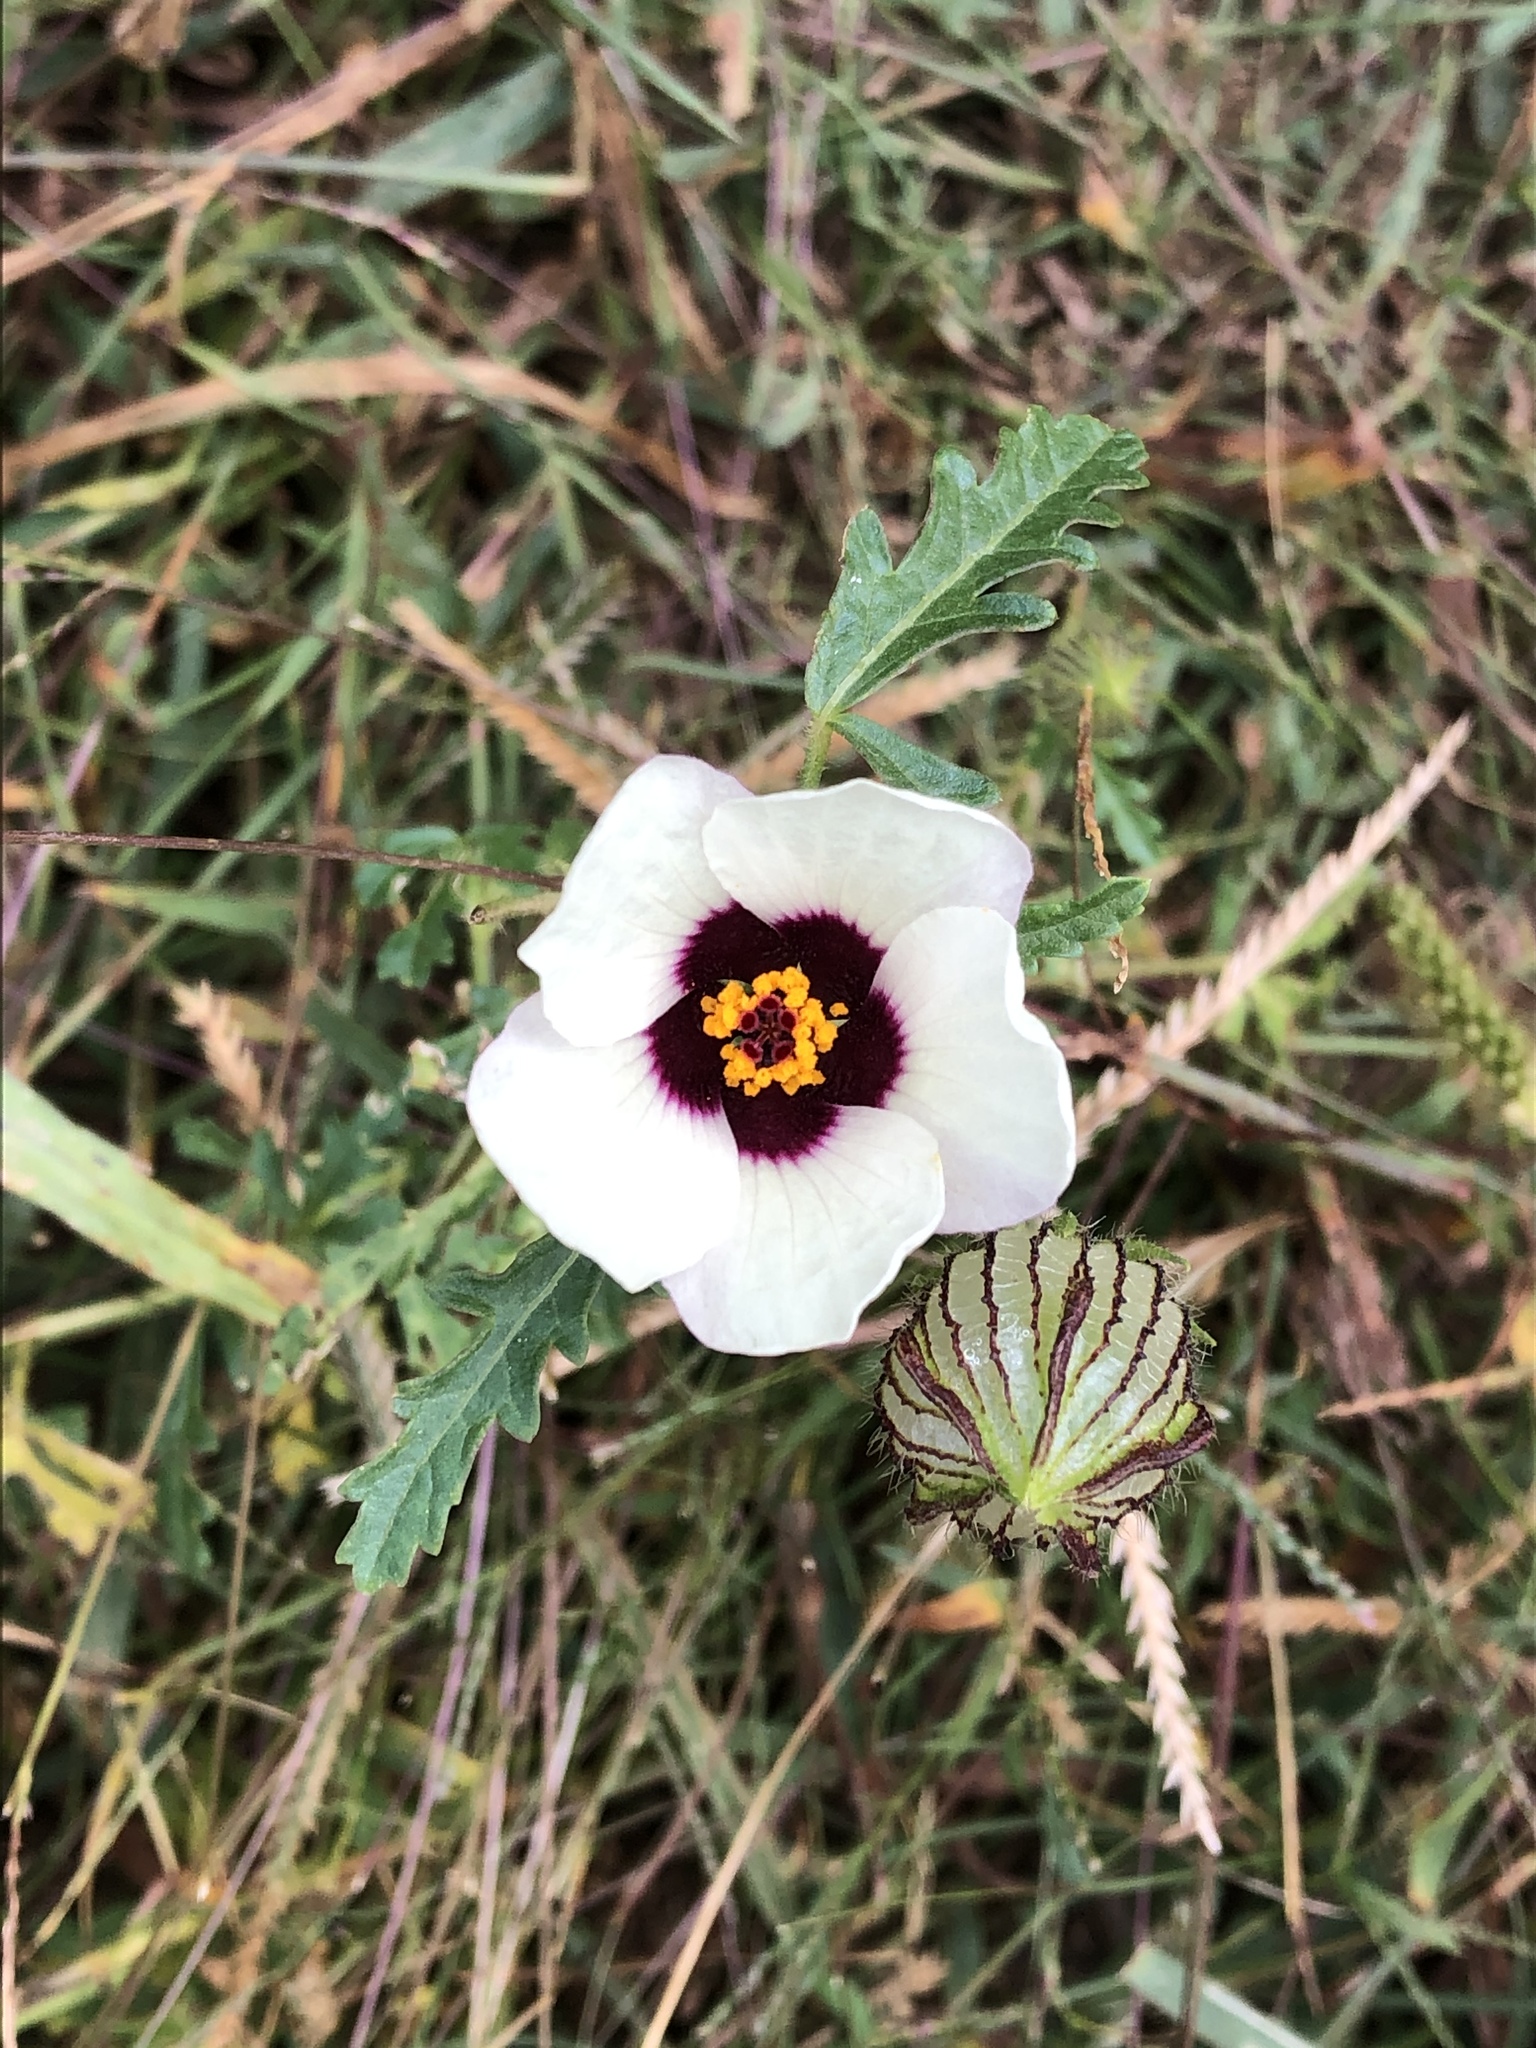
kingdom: Plantae
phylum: Tracheophyta
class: Magnoliopsida
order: Malvales
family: Malvaceae
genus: Hibiscus
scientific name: Hibiscus trionum
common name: Bladder ketmia
